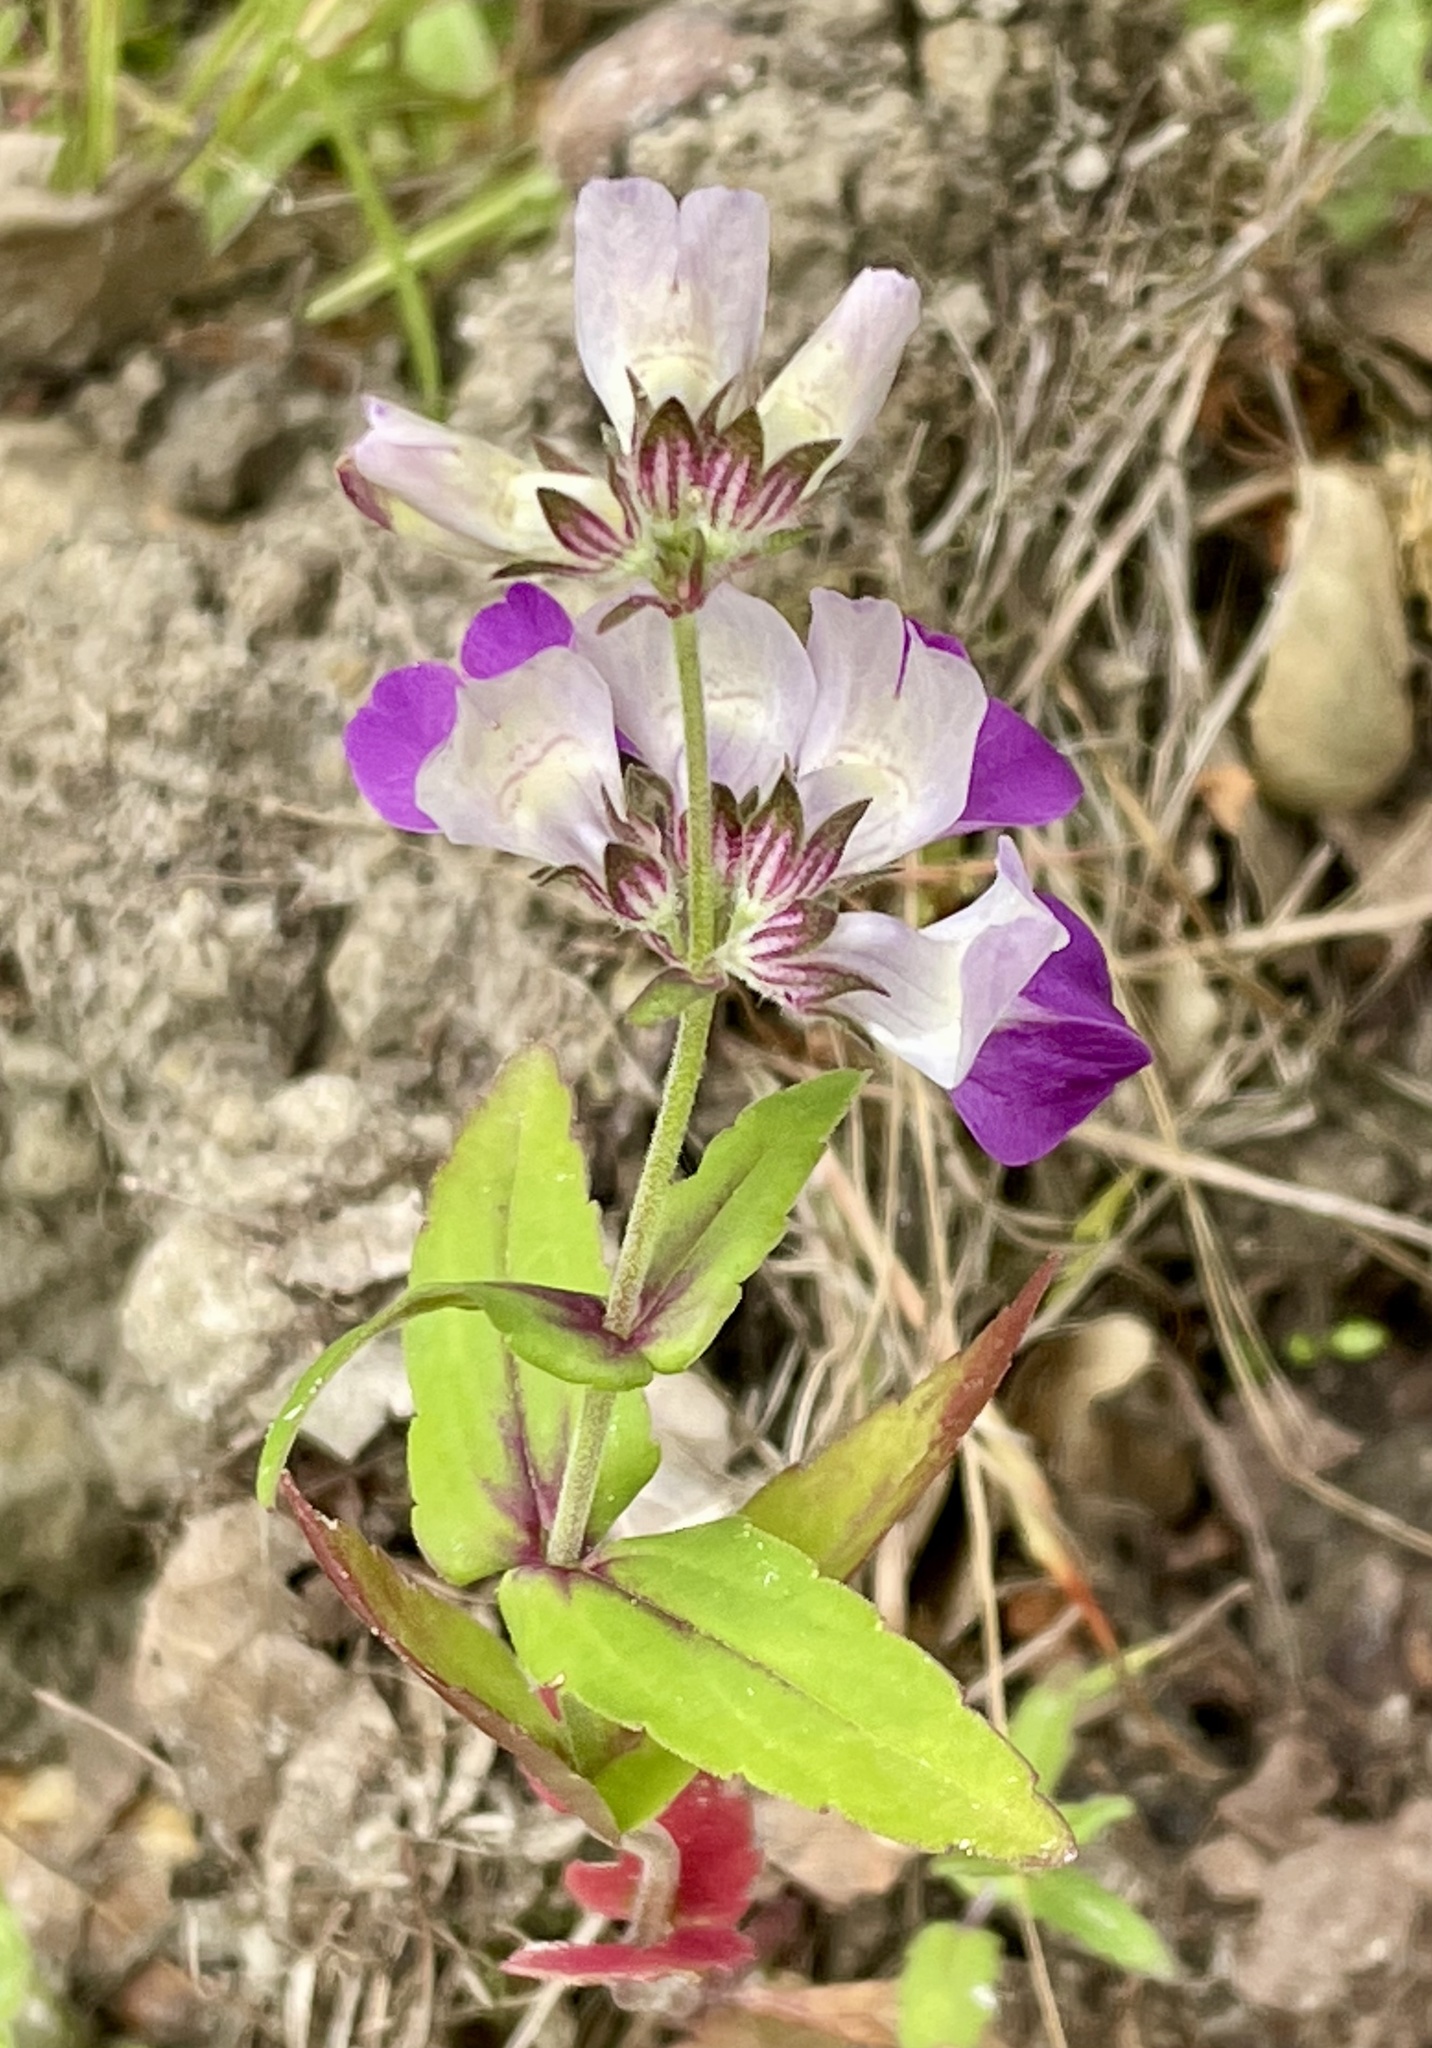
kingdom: Plantae
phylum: Tracheophyta
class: Magnoliopsida
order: Lamiales
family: Plantaginaceae
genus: Collinsia
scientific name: Collinsia heterophylla
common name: Chinese-houses
